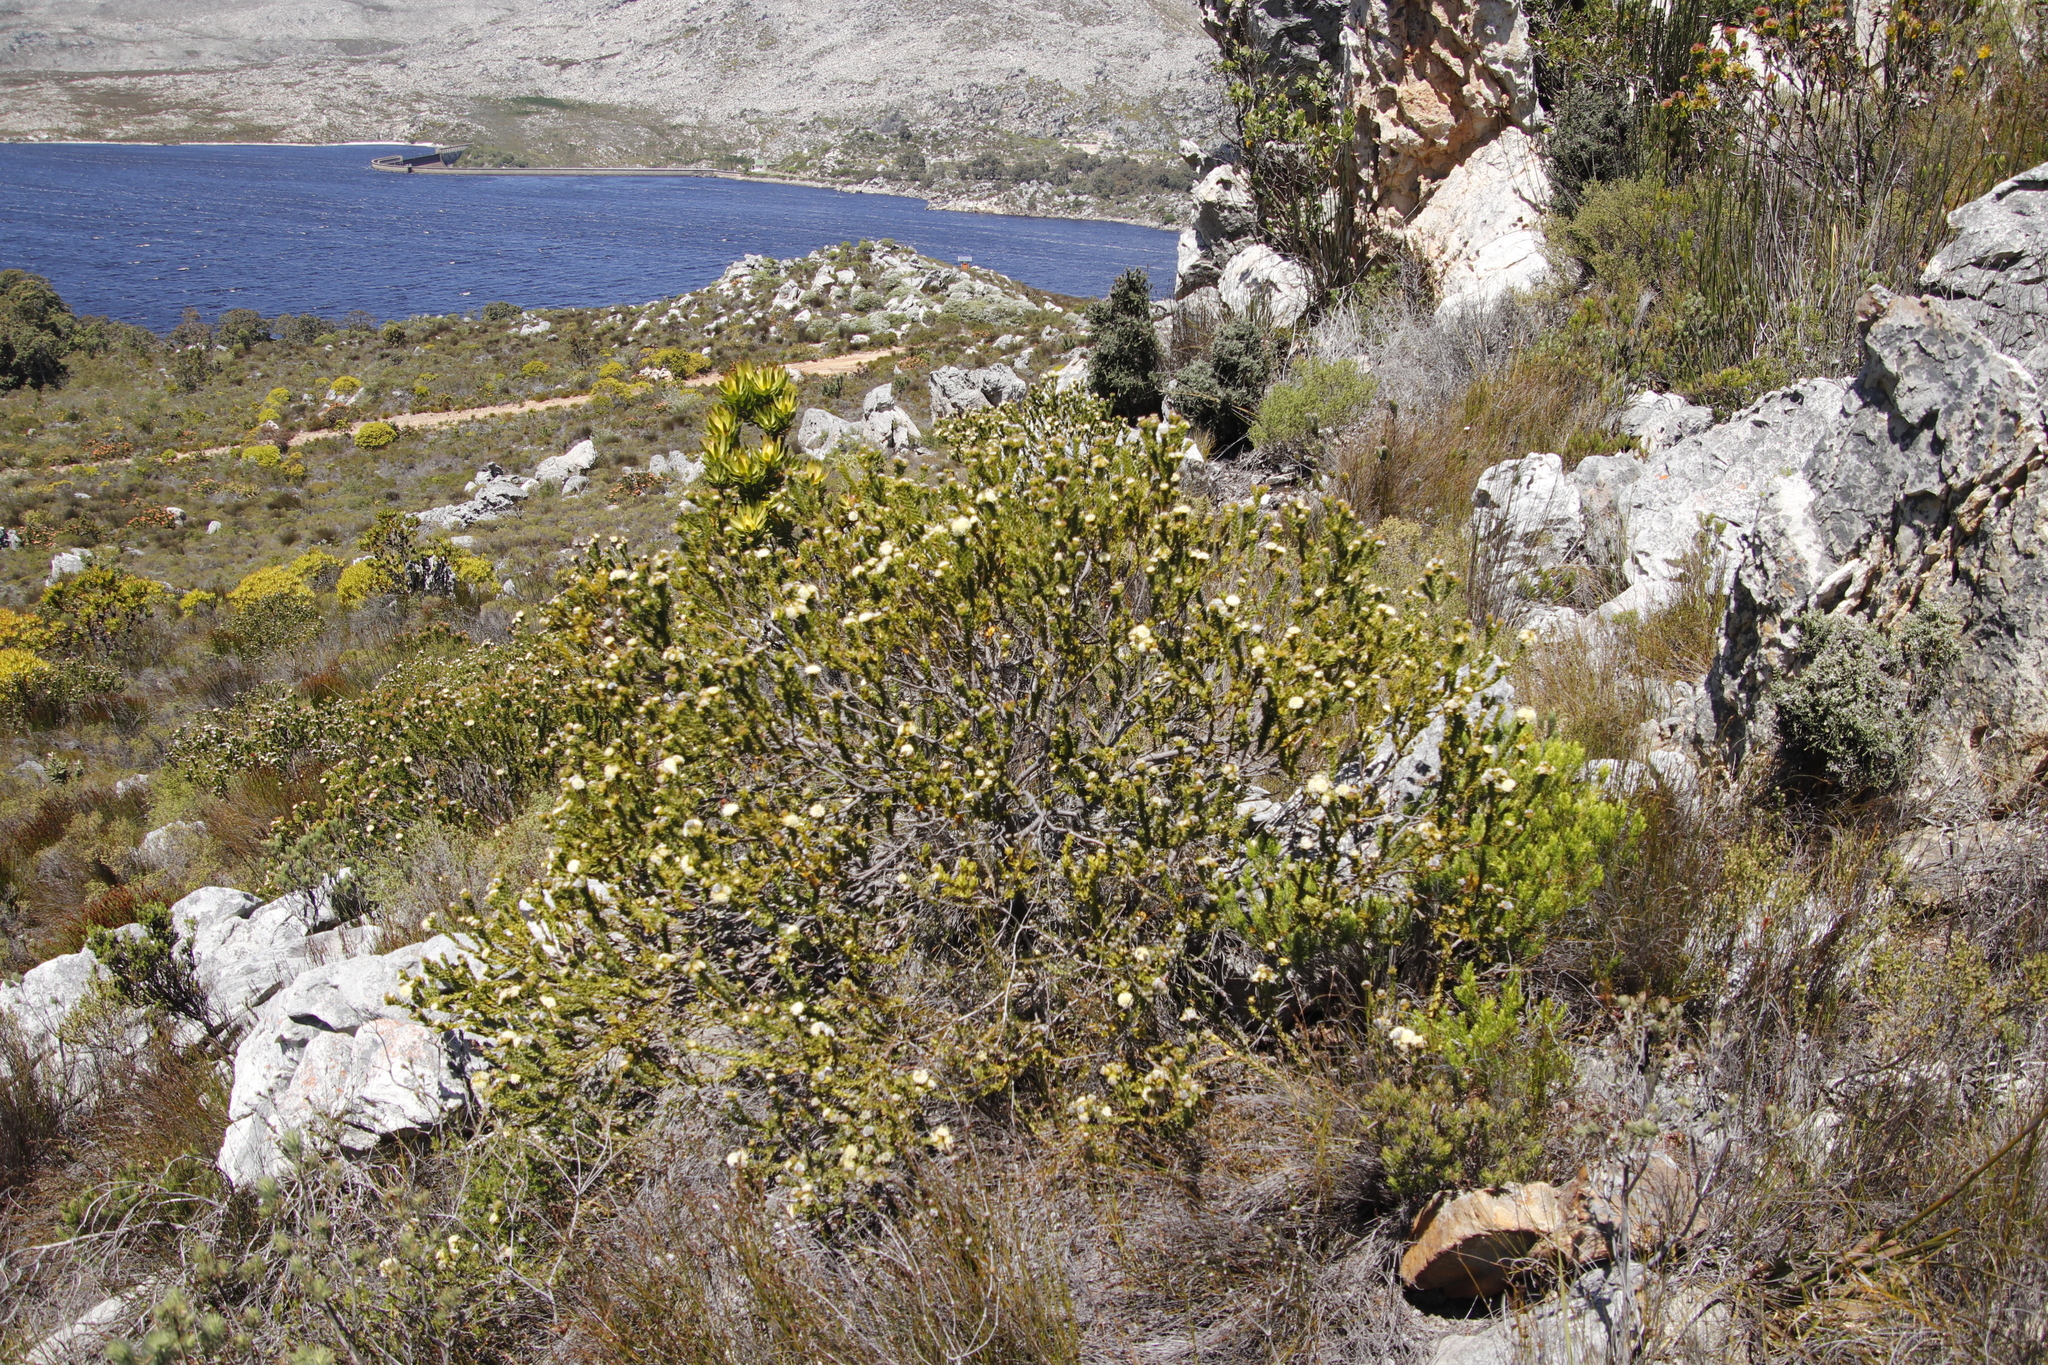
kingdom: Plantae
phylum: Tracheophyta
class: Magnoliopsida
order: Proteales
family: Proteaceae
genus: Diastella
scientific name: Diastella thymelaeoides
